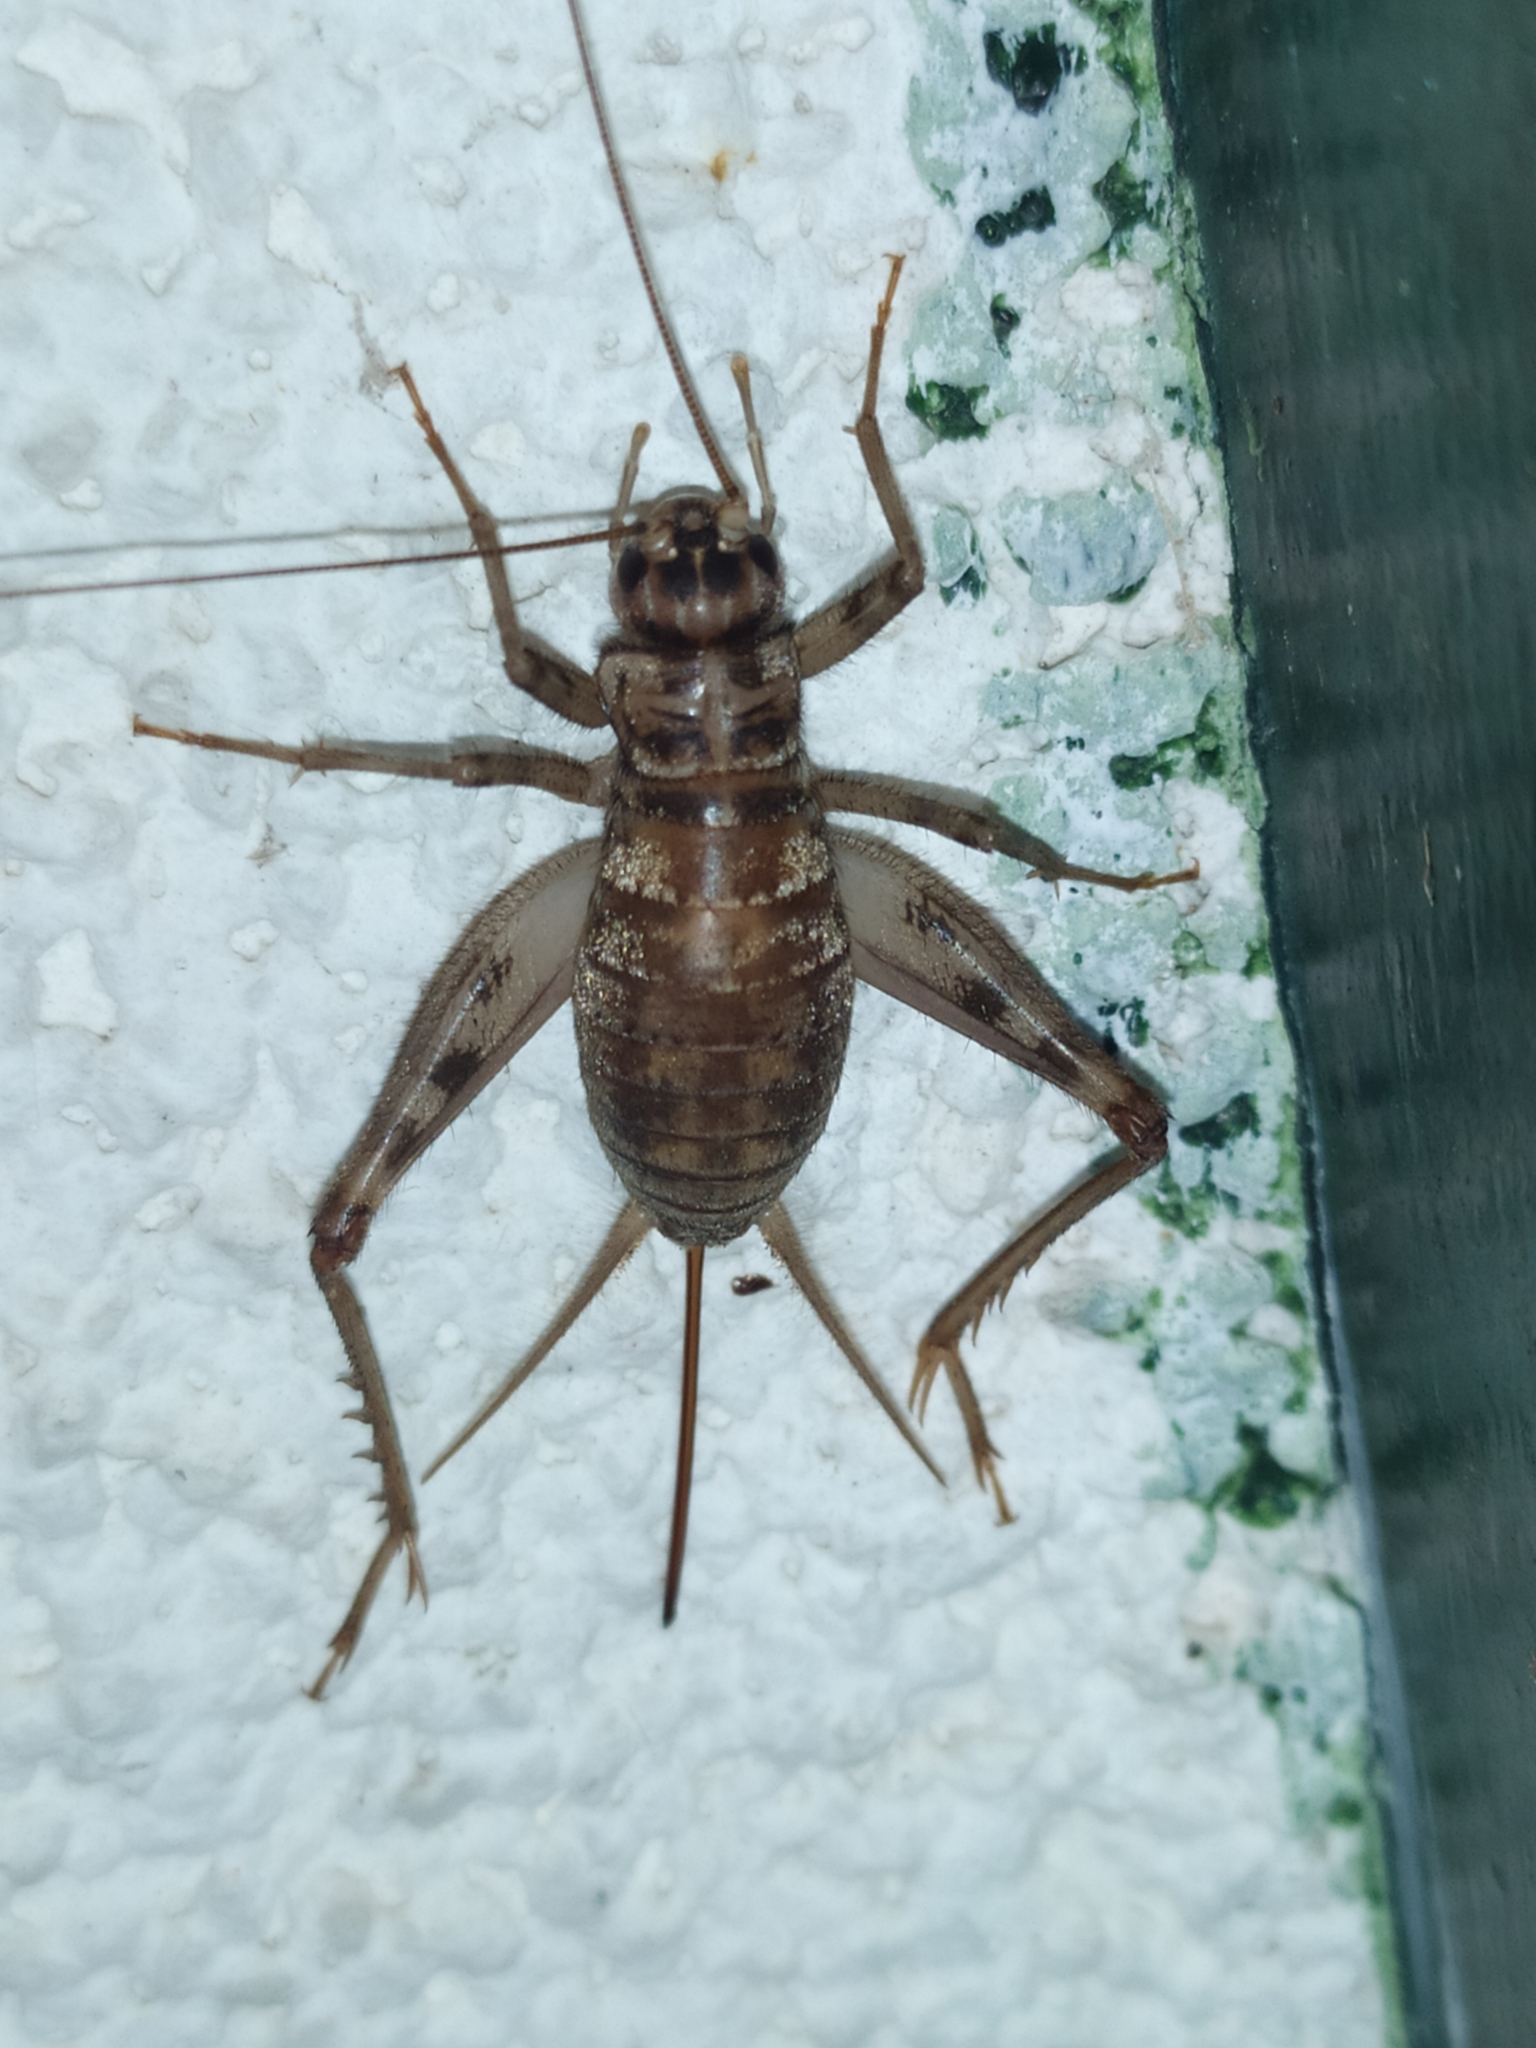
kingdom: Animalia
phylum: Arthropoda
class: Insecta
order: Orthoptera
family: Gryllidae
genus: Gryllomorpha
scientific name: Gryllomorpha dalmatina
